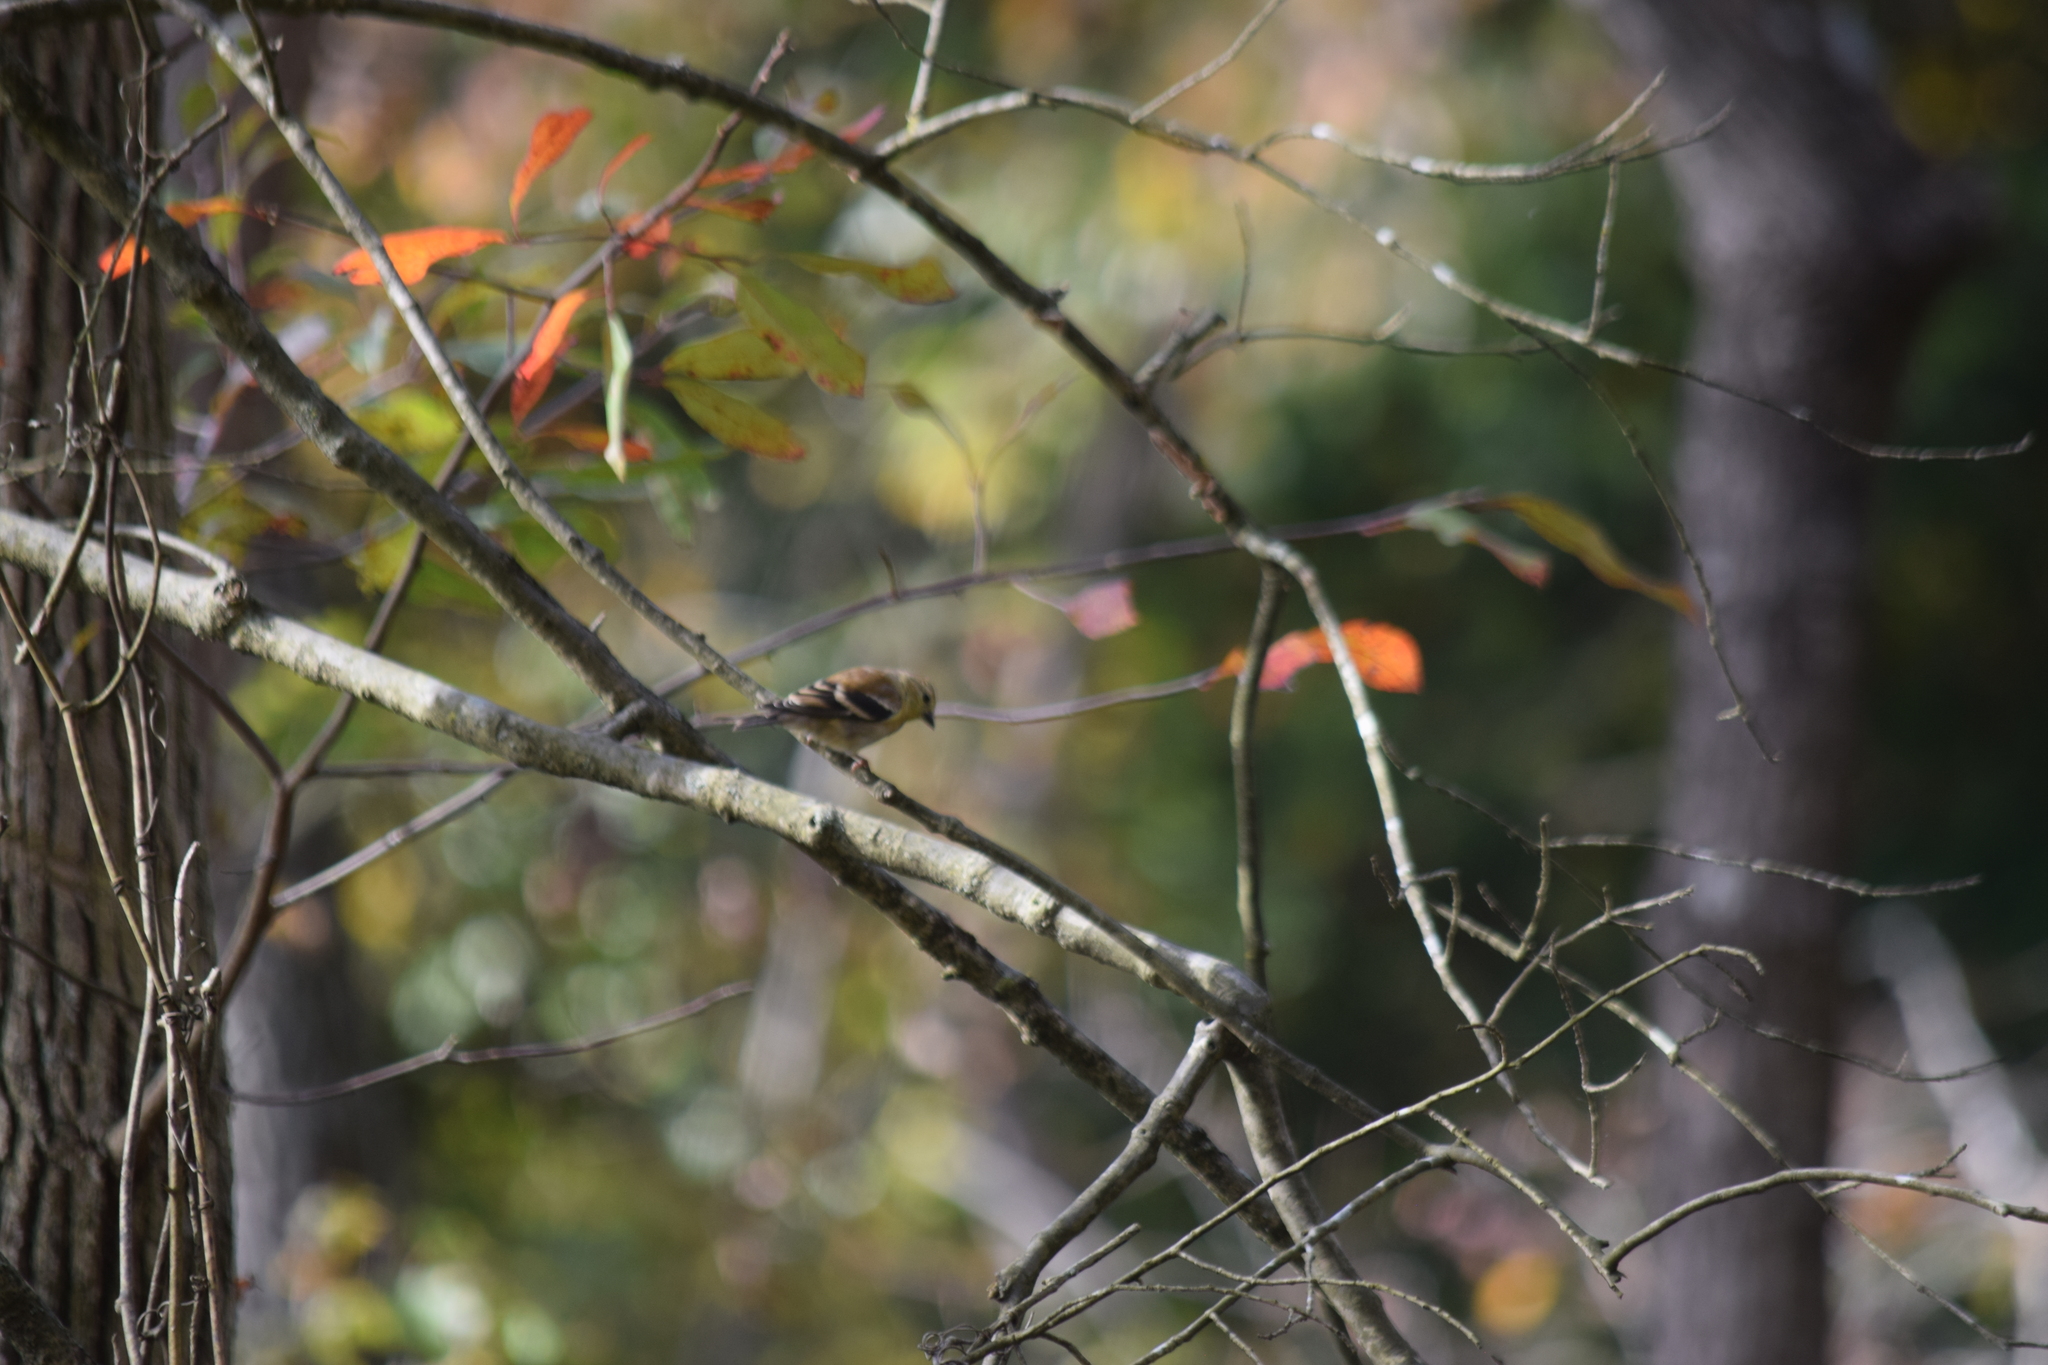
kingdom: Animalia
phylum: Chordata
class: Aves
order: Passeriformes
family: Fringillidae
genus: Spinus
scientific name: Spinus tristis
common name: American goldfinch
